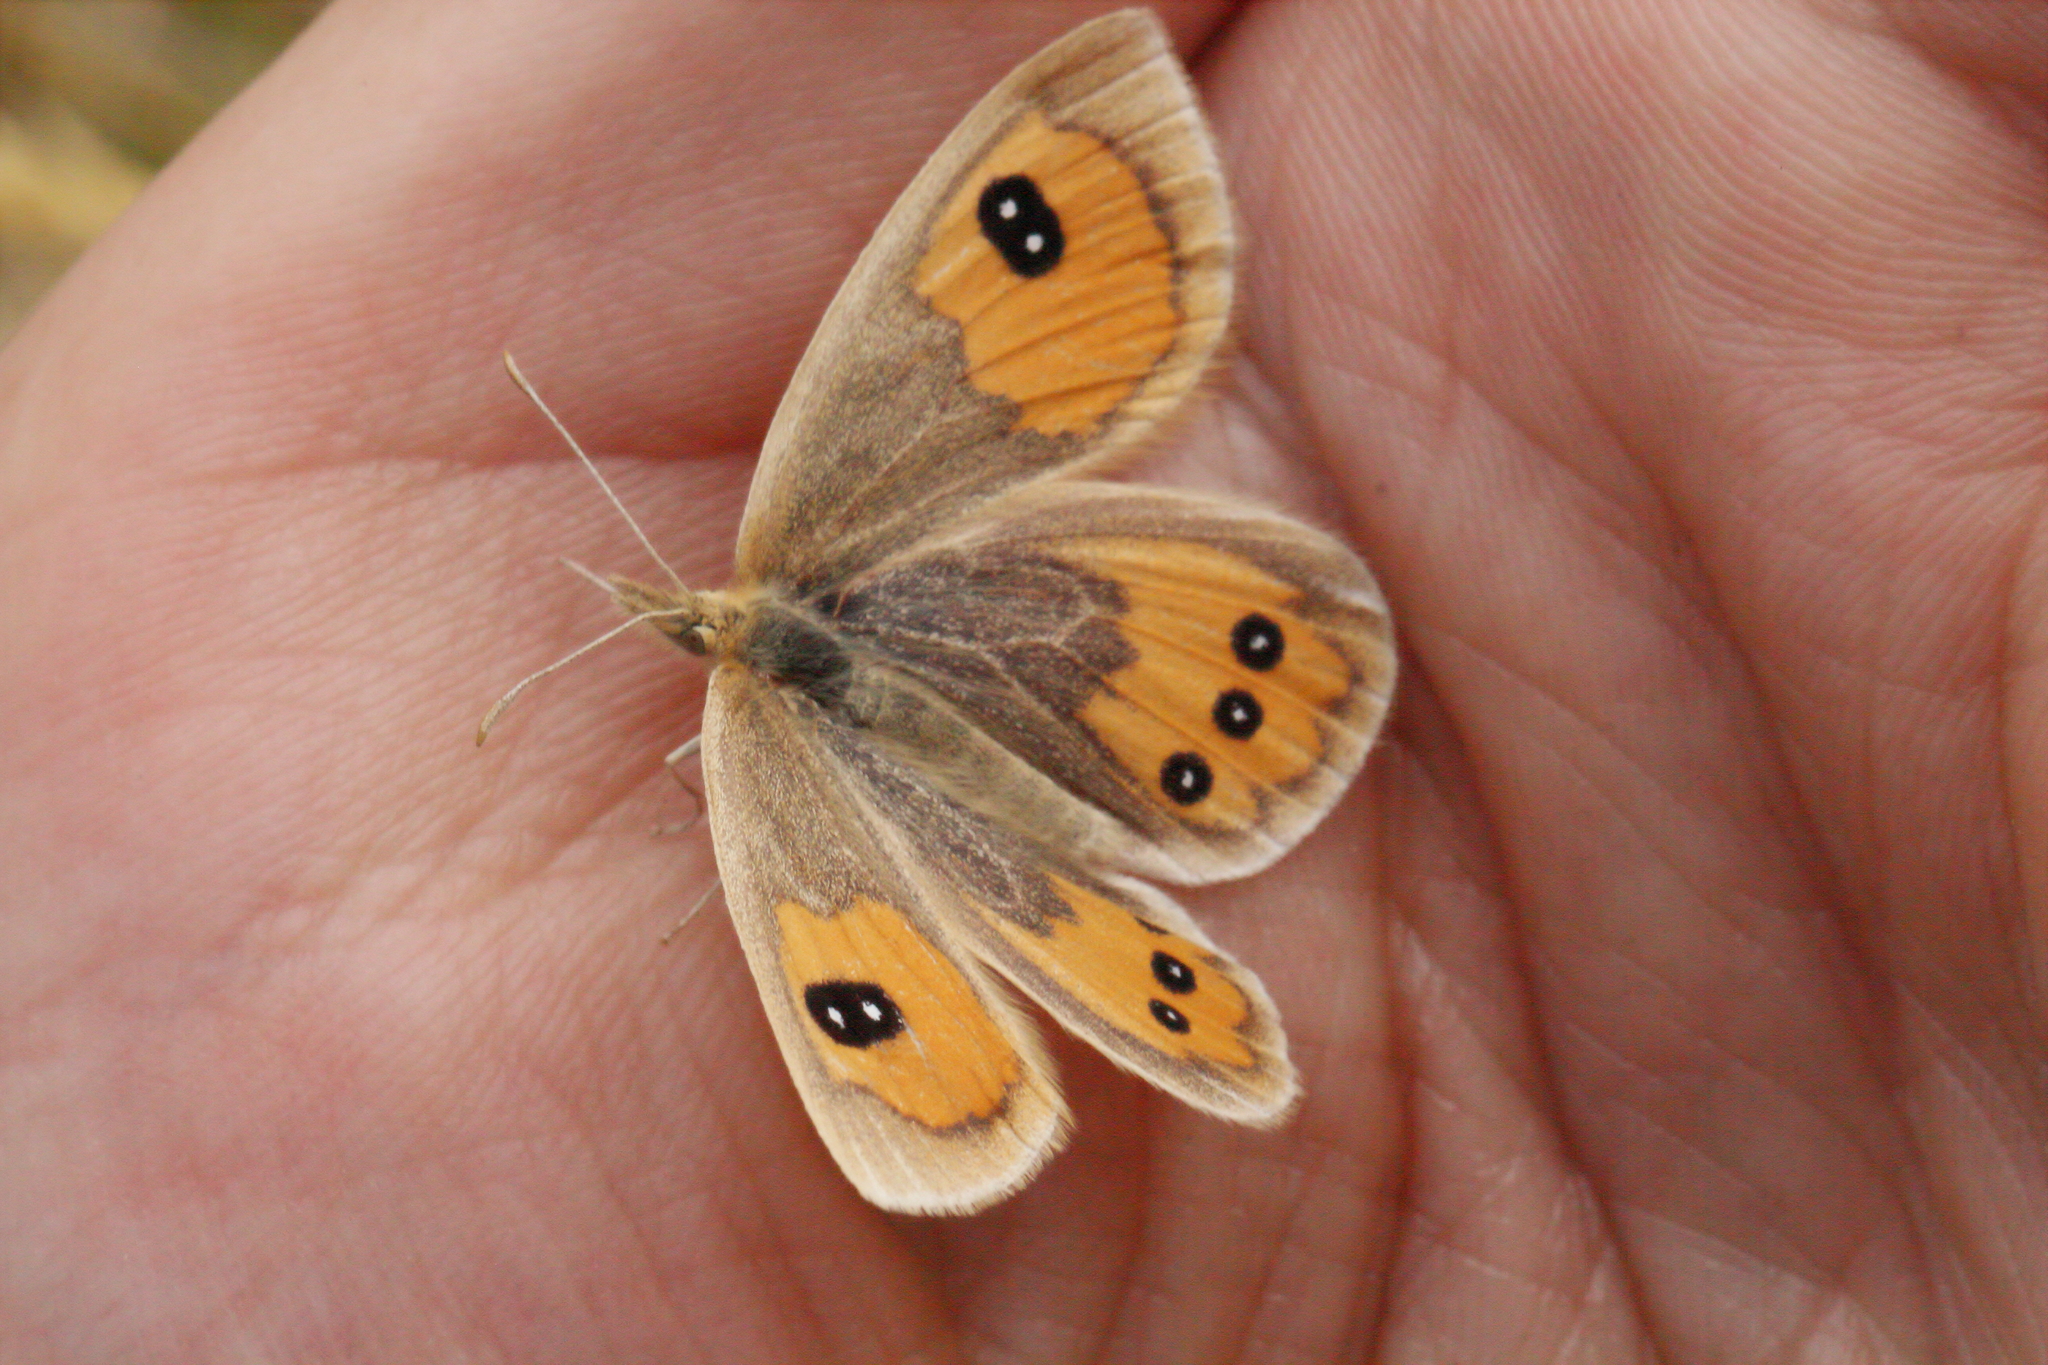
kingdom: Animalia
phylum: Arthropoda
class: Insecta
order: Lepidoptera
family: Nymphalidae
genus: Argyrophenga
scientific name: Argyrophenga antipodum
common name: Common tussock butterfly
